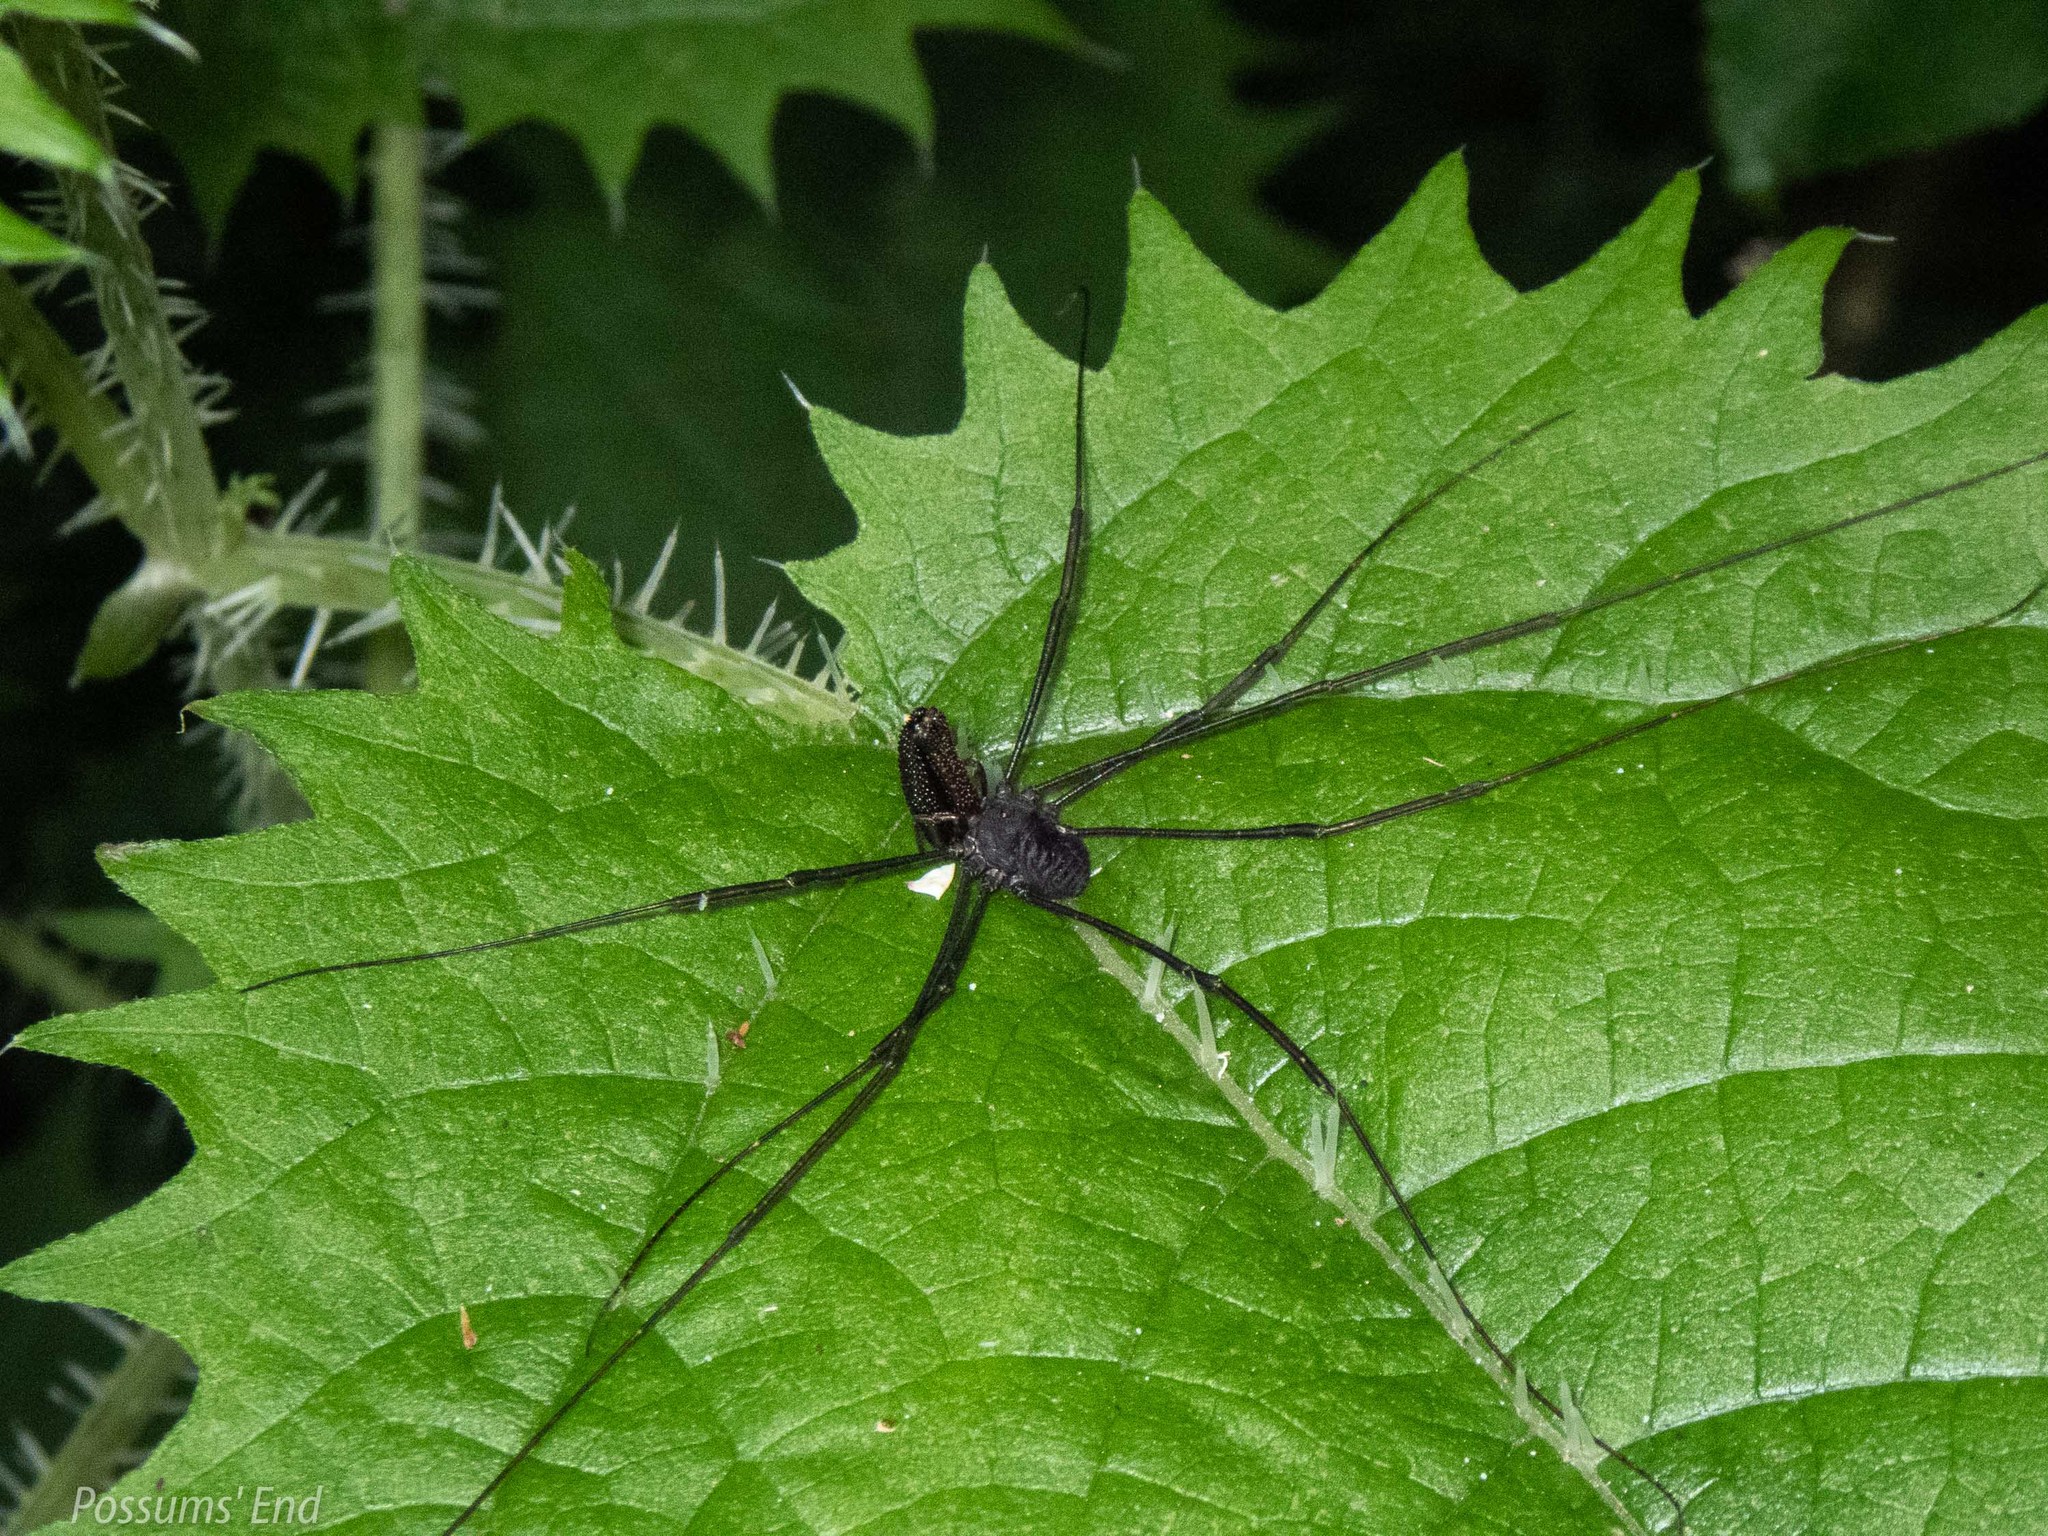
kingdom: Animalia
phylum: Arthropoda
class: Arachnida
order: Opiliones
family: Neopilionidae
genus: Pantopsalis
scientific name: Pantopsalis albipalpis
